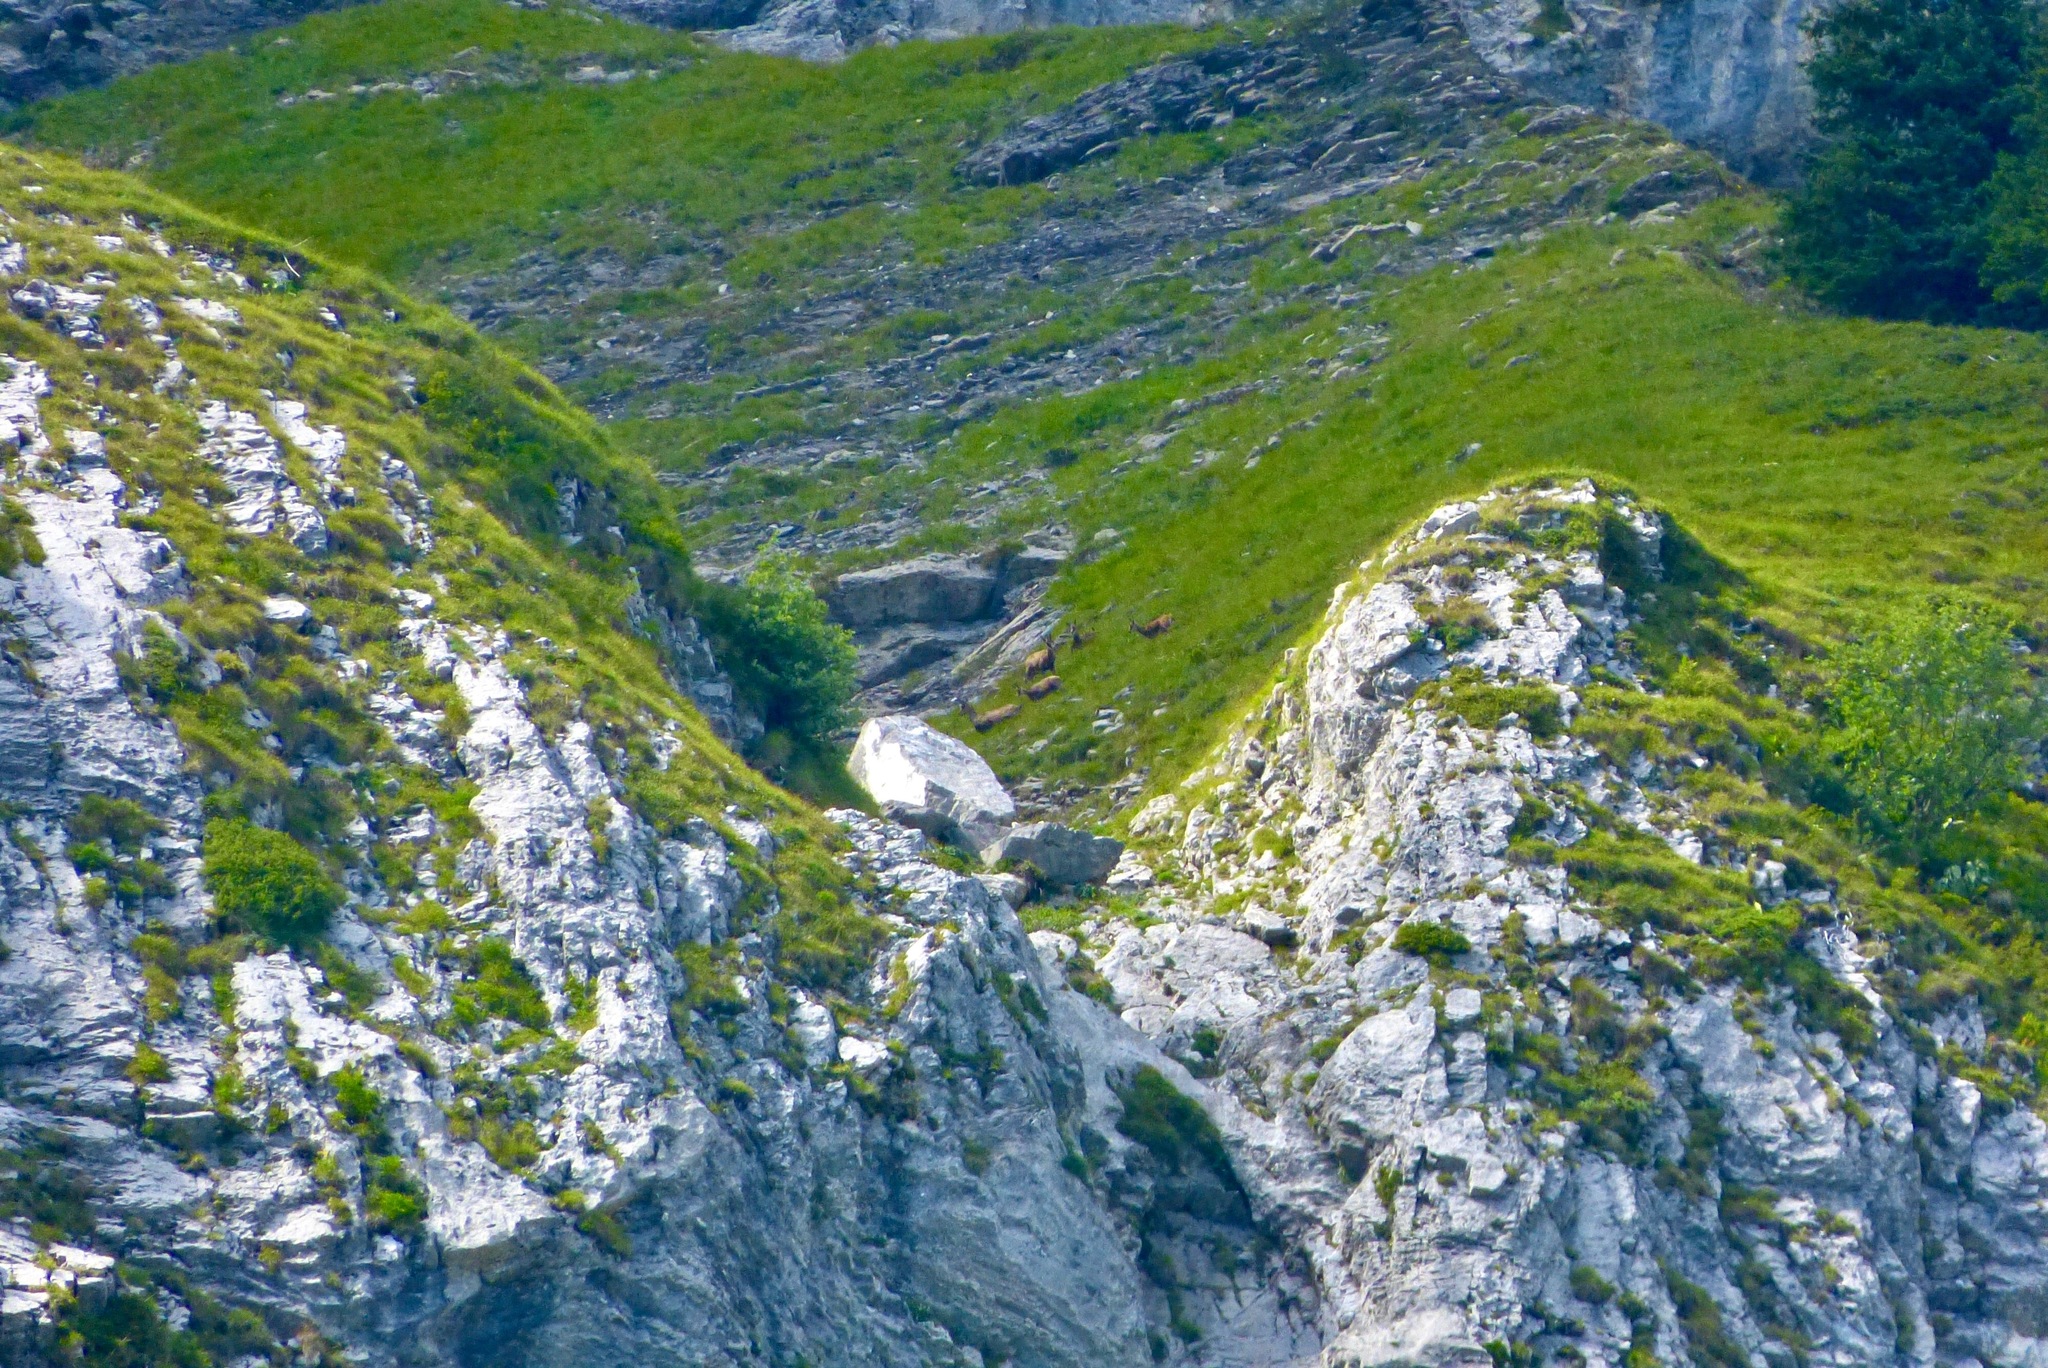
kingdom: Animalia
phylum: Chordata
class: Mammalia
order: Artiodactyla
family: Bovidae
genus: Rupicapra
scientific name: Rupicapra rupicapra
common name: Chamois
